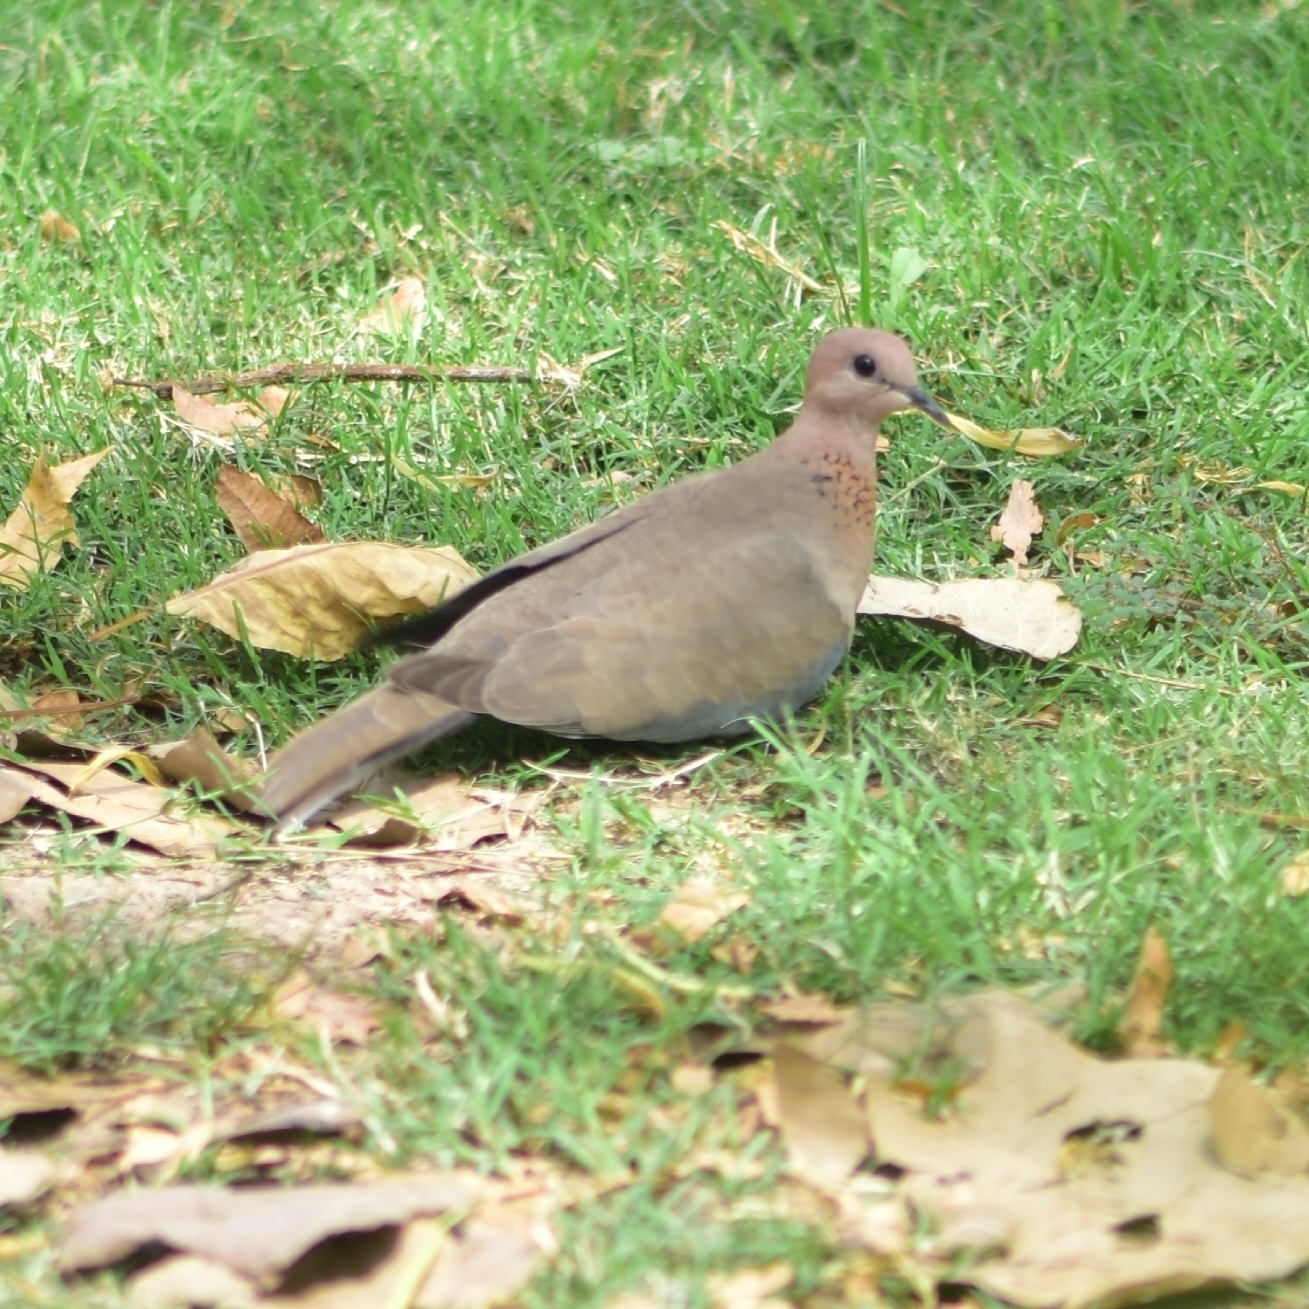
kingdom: Animalia
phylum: Chordata
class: Aves
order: Columbiformes
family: Columbidae
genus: Spilopelia
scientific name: Spilopelia senegalensis
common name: Laughing dove
